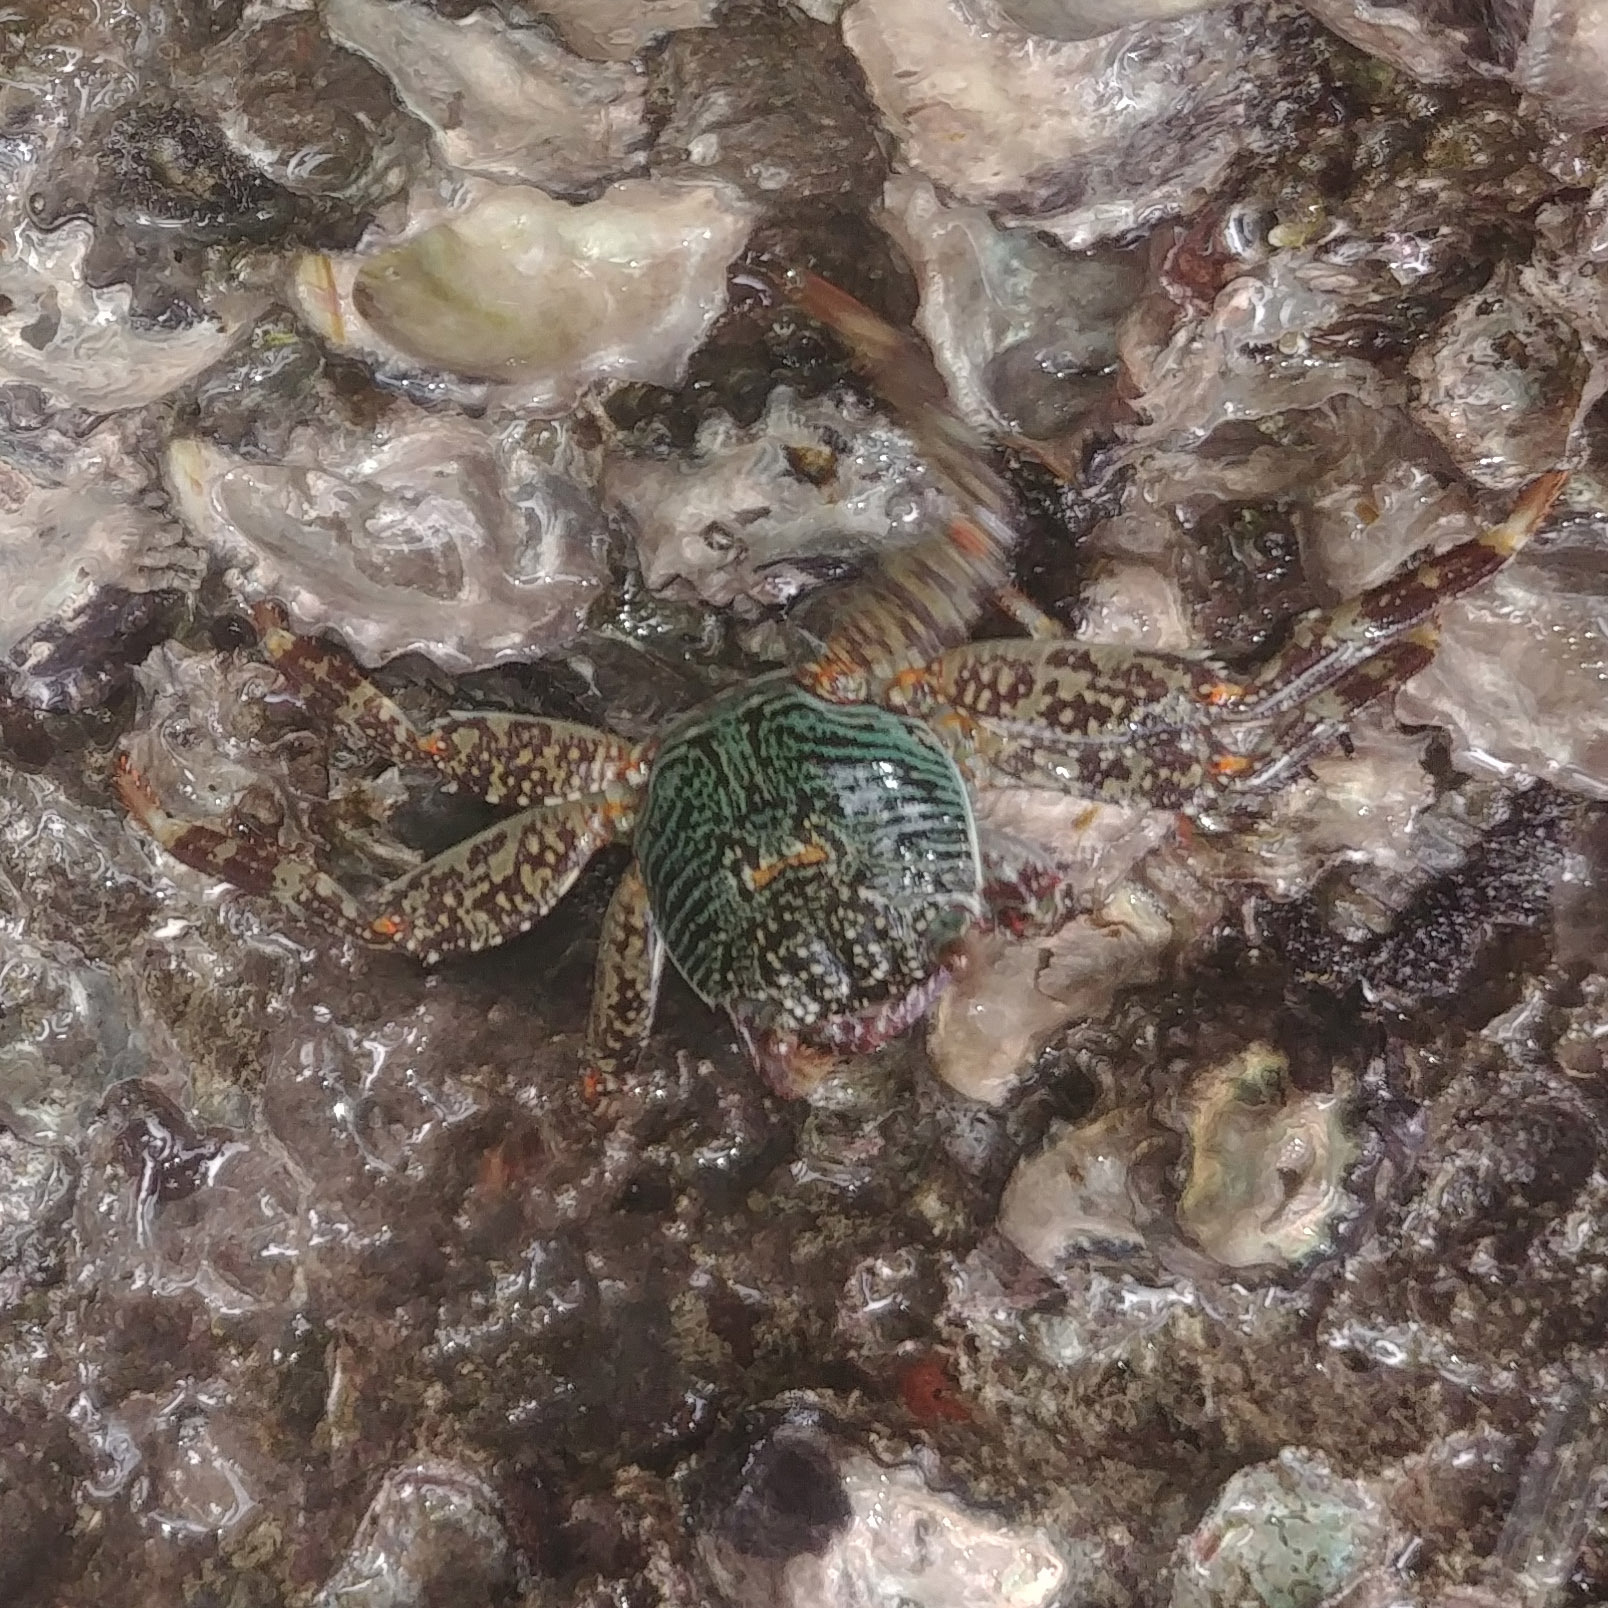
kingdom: Animalia
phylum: Arthropoda
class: Malacostraca
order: Decapoda
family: Grapsidae
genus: Grapsus
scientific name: Grapsus albolineatus
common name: Mottled lightfoot crab
